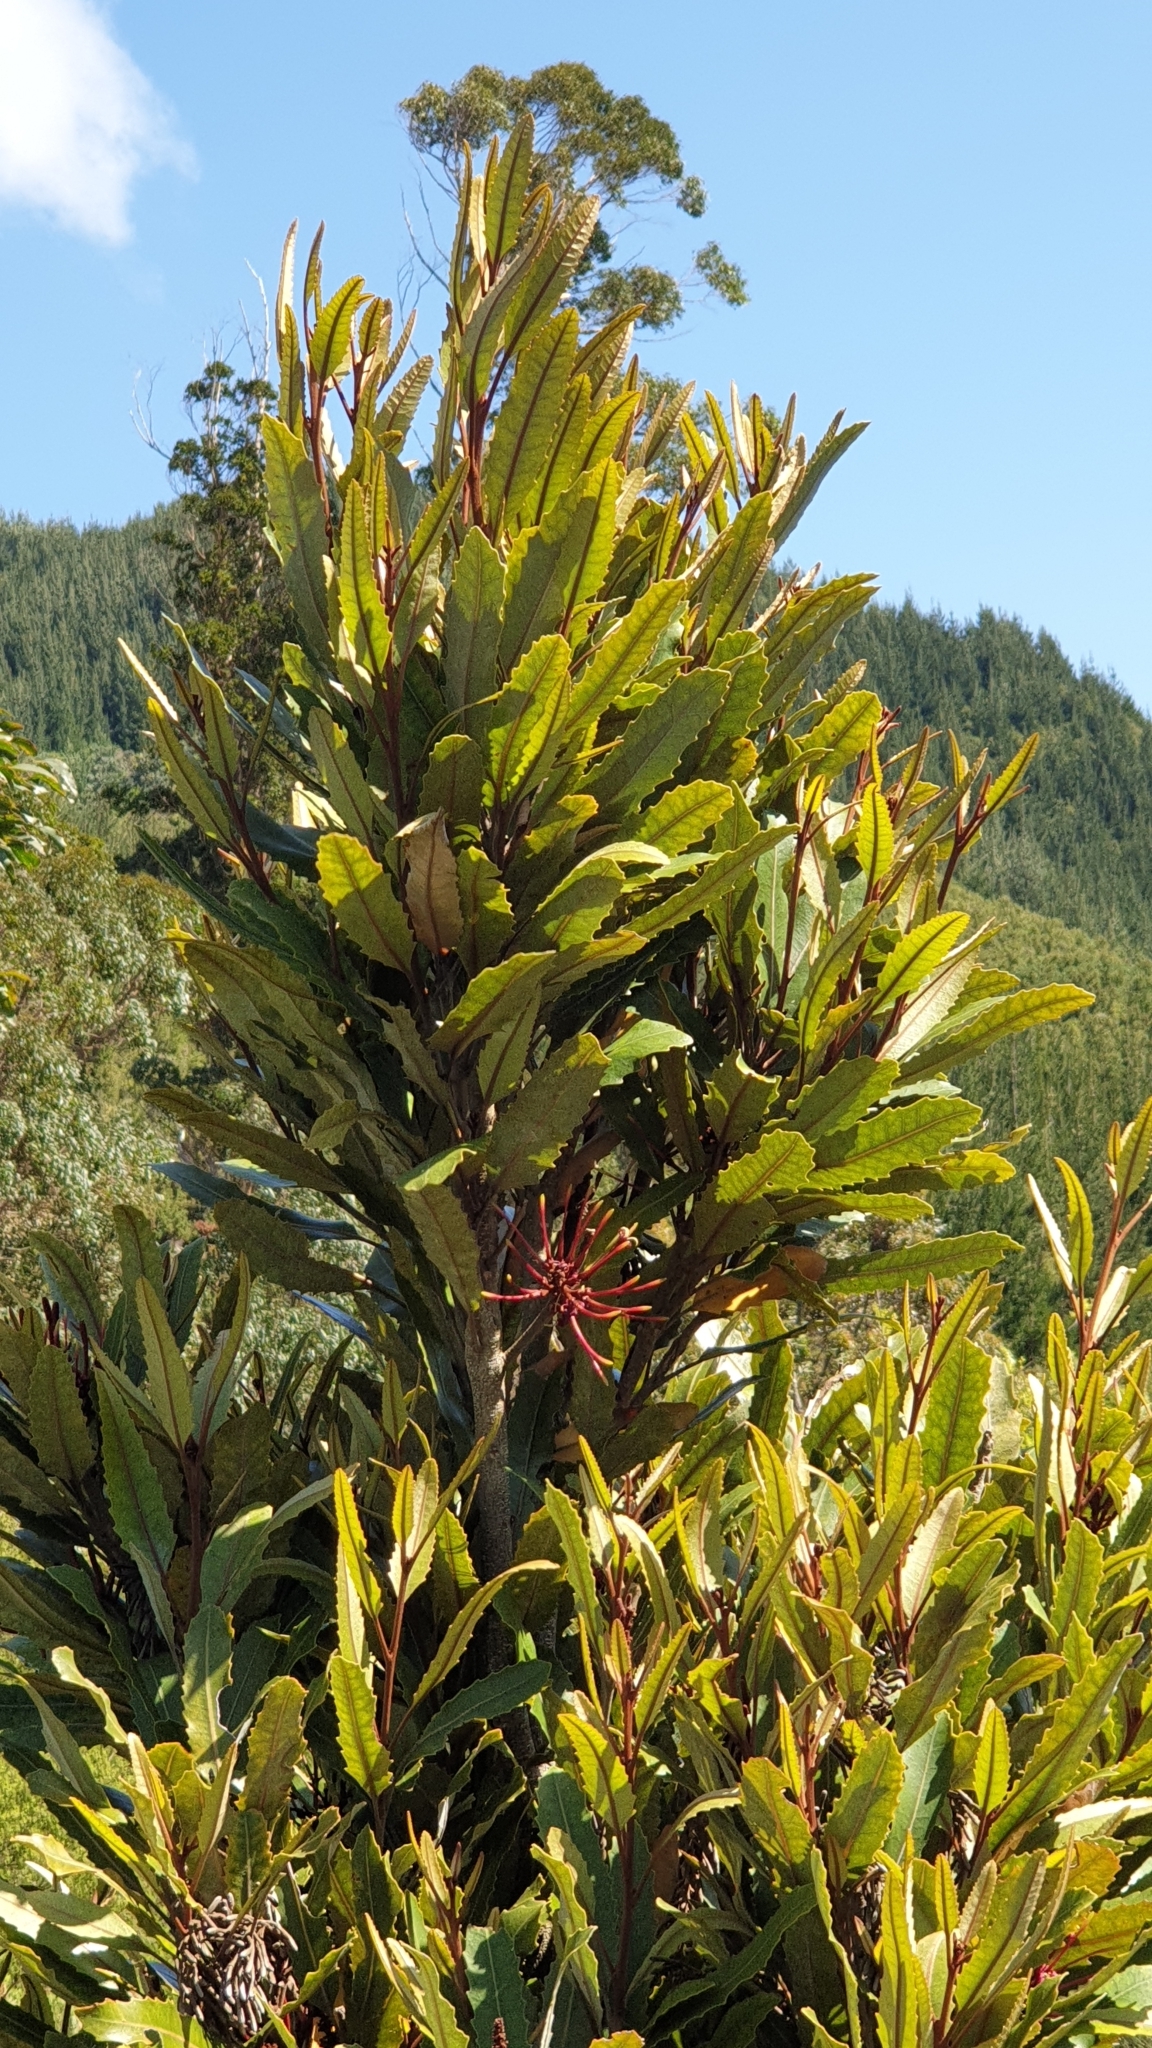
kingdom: Plantae
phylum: Tracheophyta
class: Magnoliopsida
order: Proteales
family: Proteaceae
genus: Knightia
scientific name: Knightia excelsa
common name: New zealand-honeysuckle
